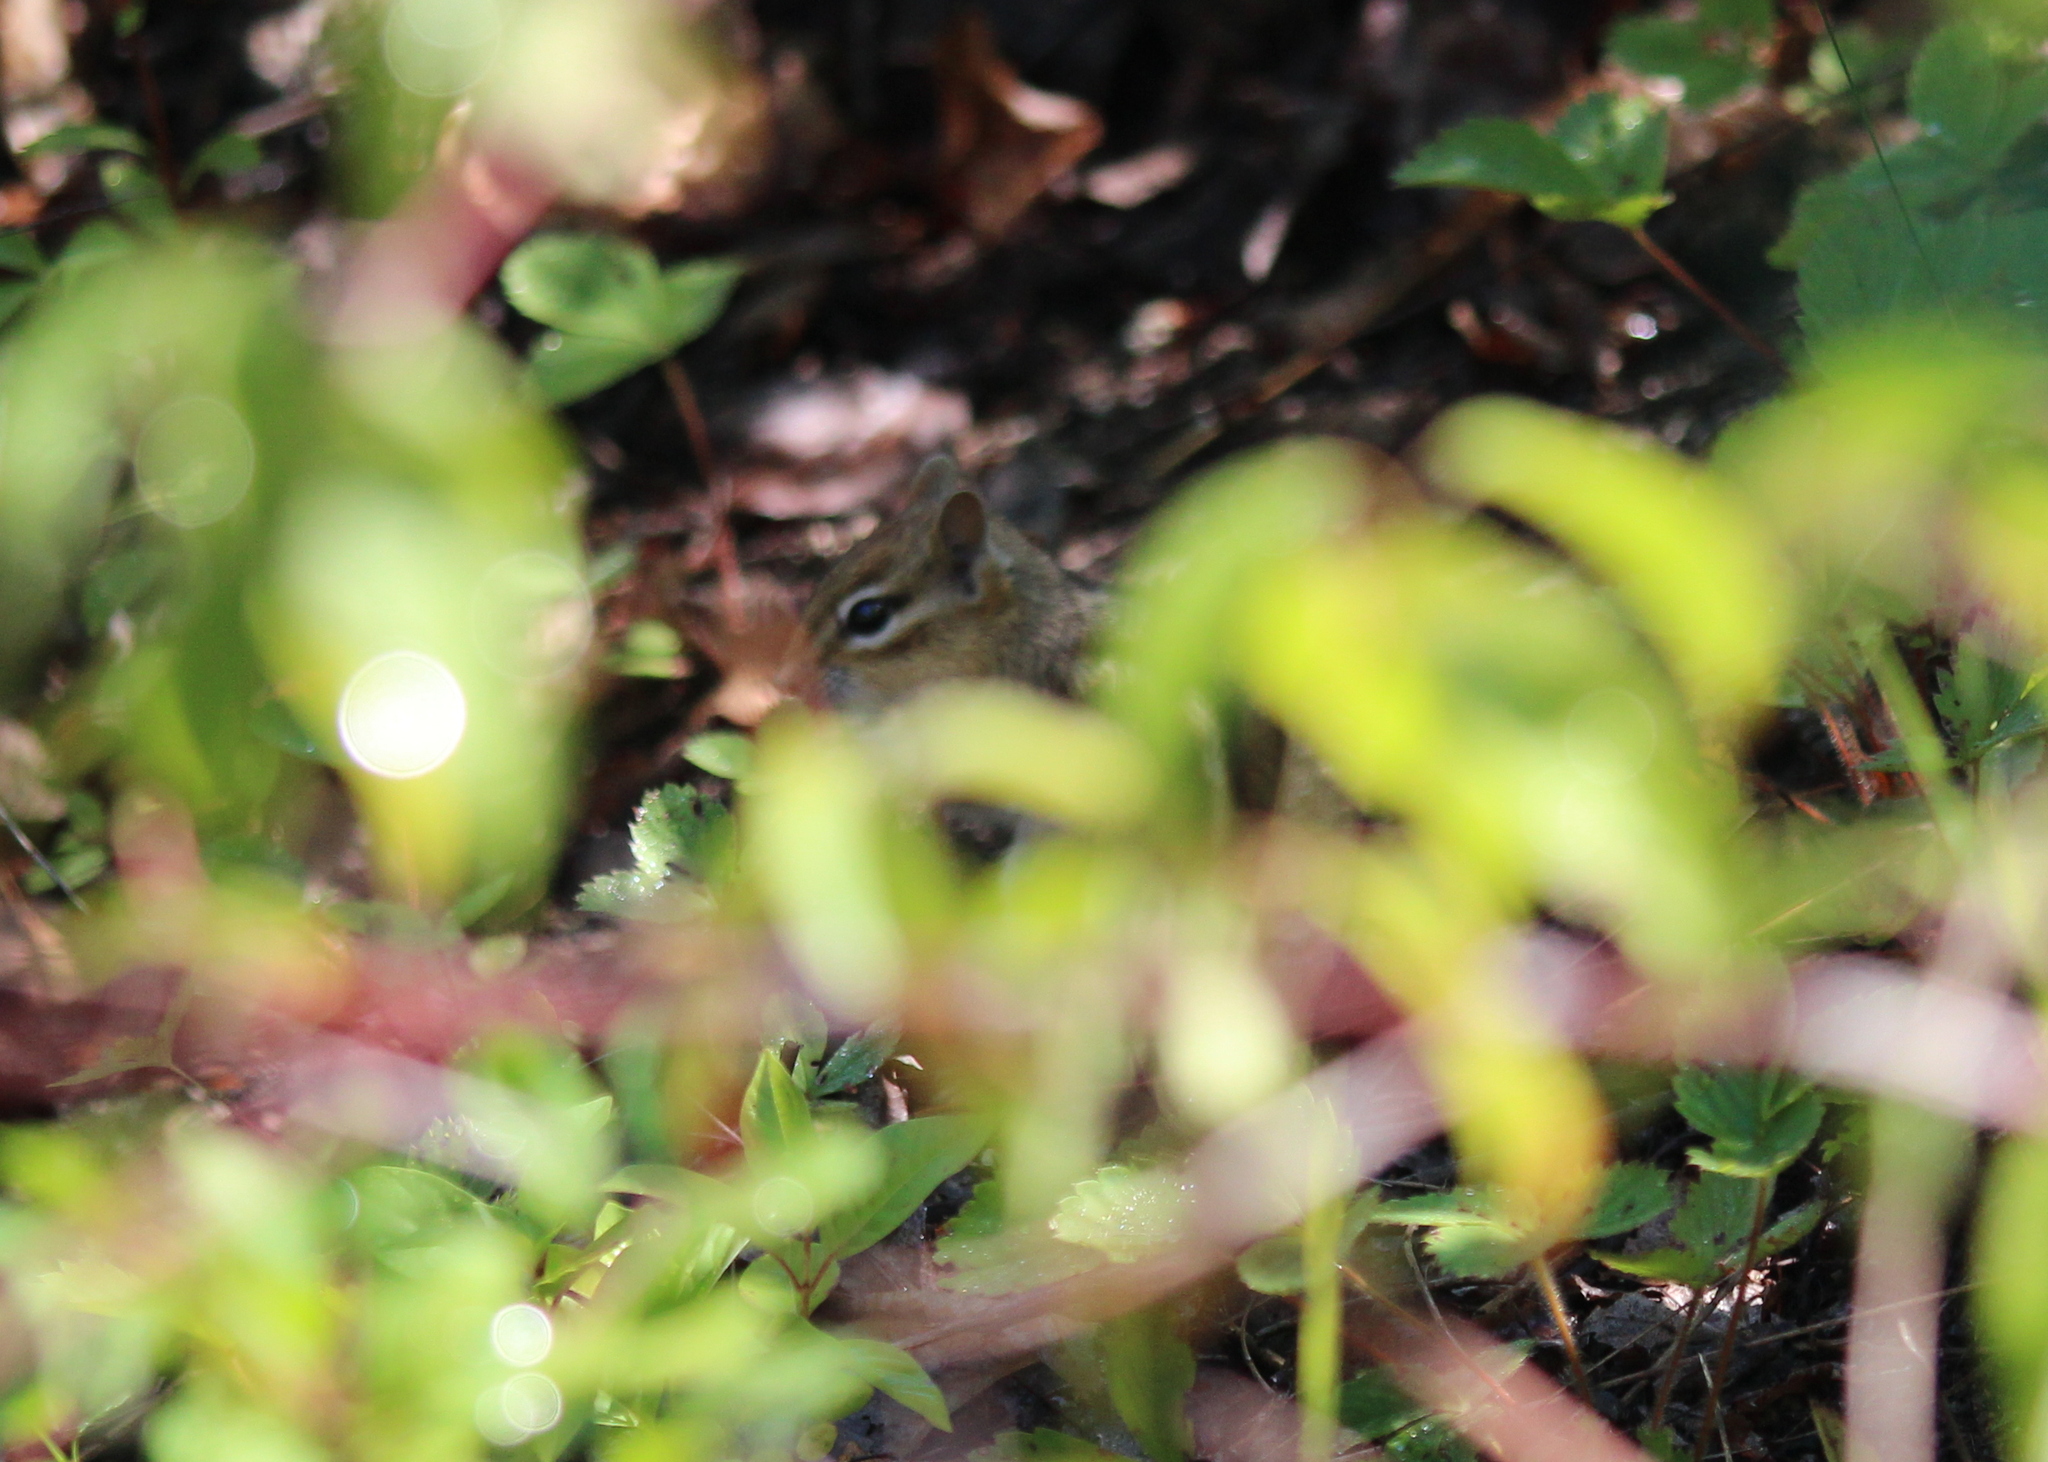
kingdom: Animalia
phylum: Chordata
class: Mammalia
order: Rodentia
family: Sciuridae
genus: Tamias
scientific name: Tamias striatus
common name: Eastern chipmunk
